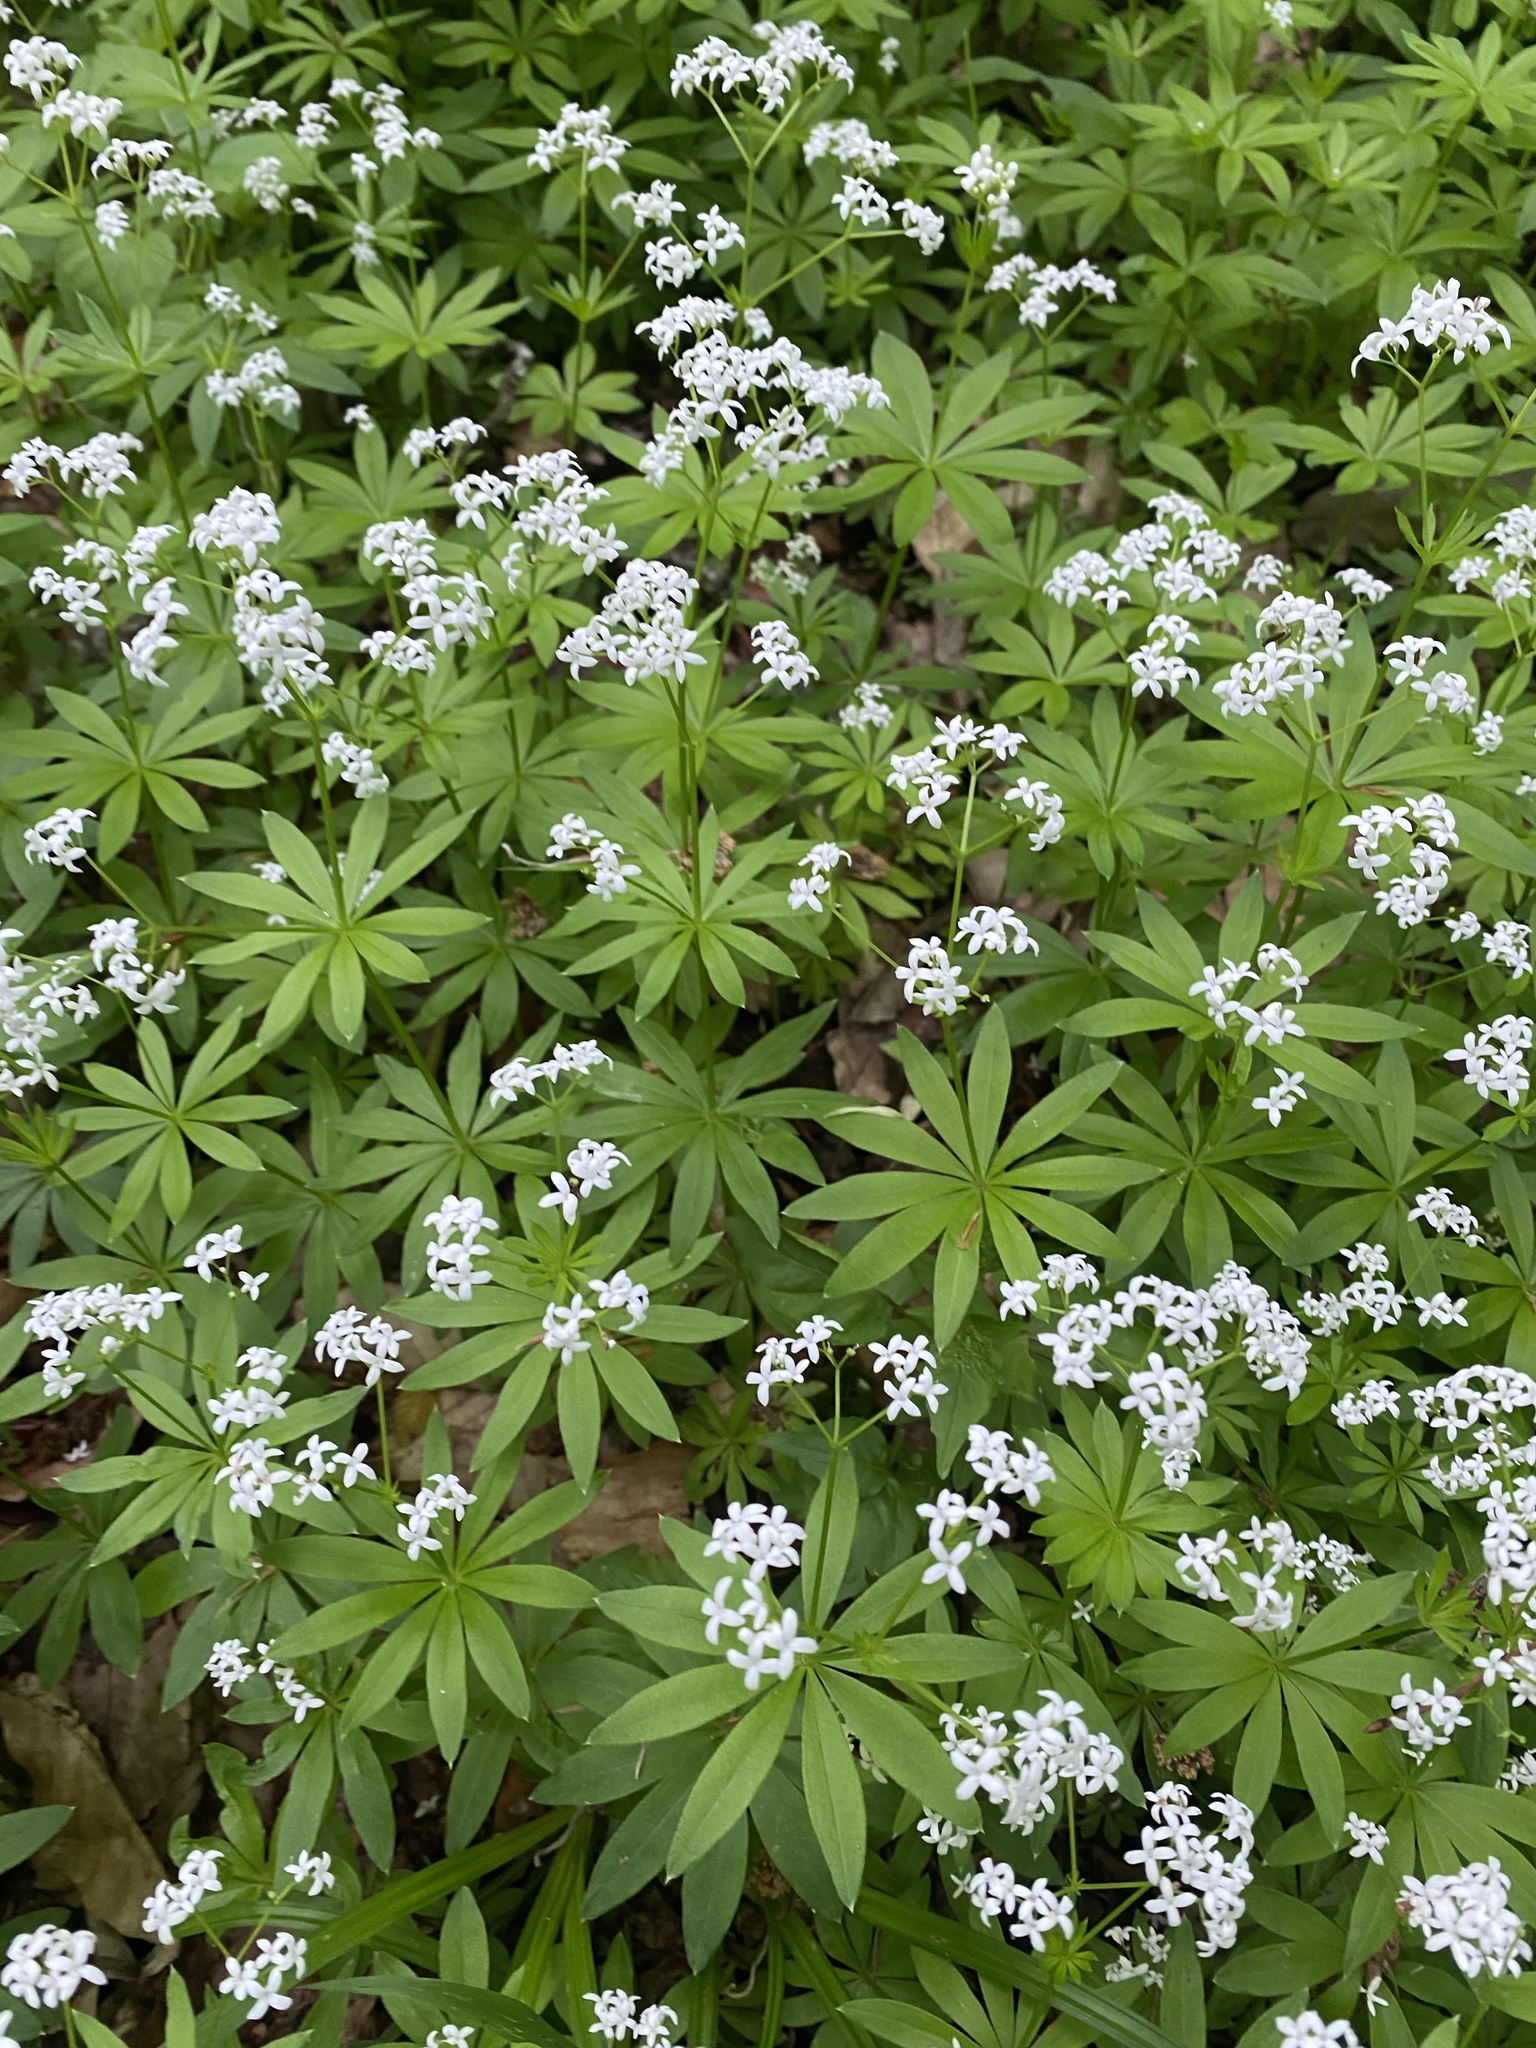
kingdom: Plantae
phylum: Tracheophyta
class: Magnoliopsida
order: Gentianales
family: Rubiaceae
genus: Galium
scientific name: Galium odoratum
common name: Sweet woodruff
